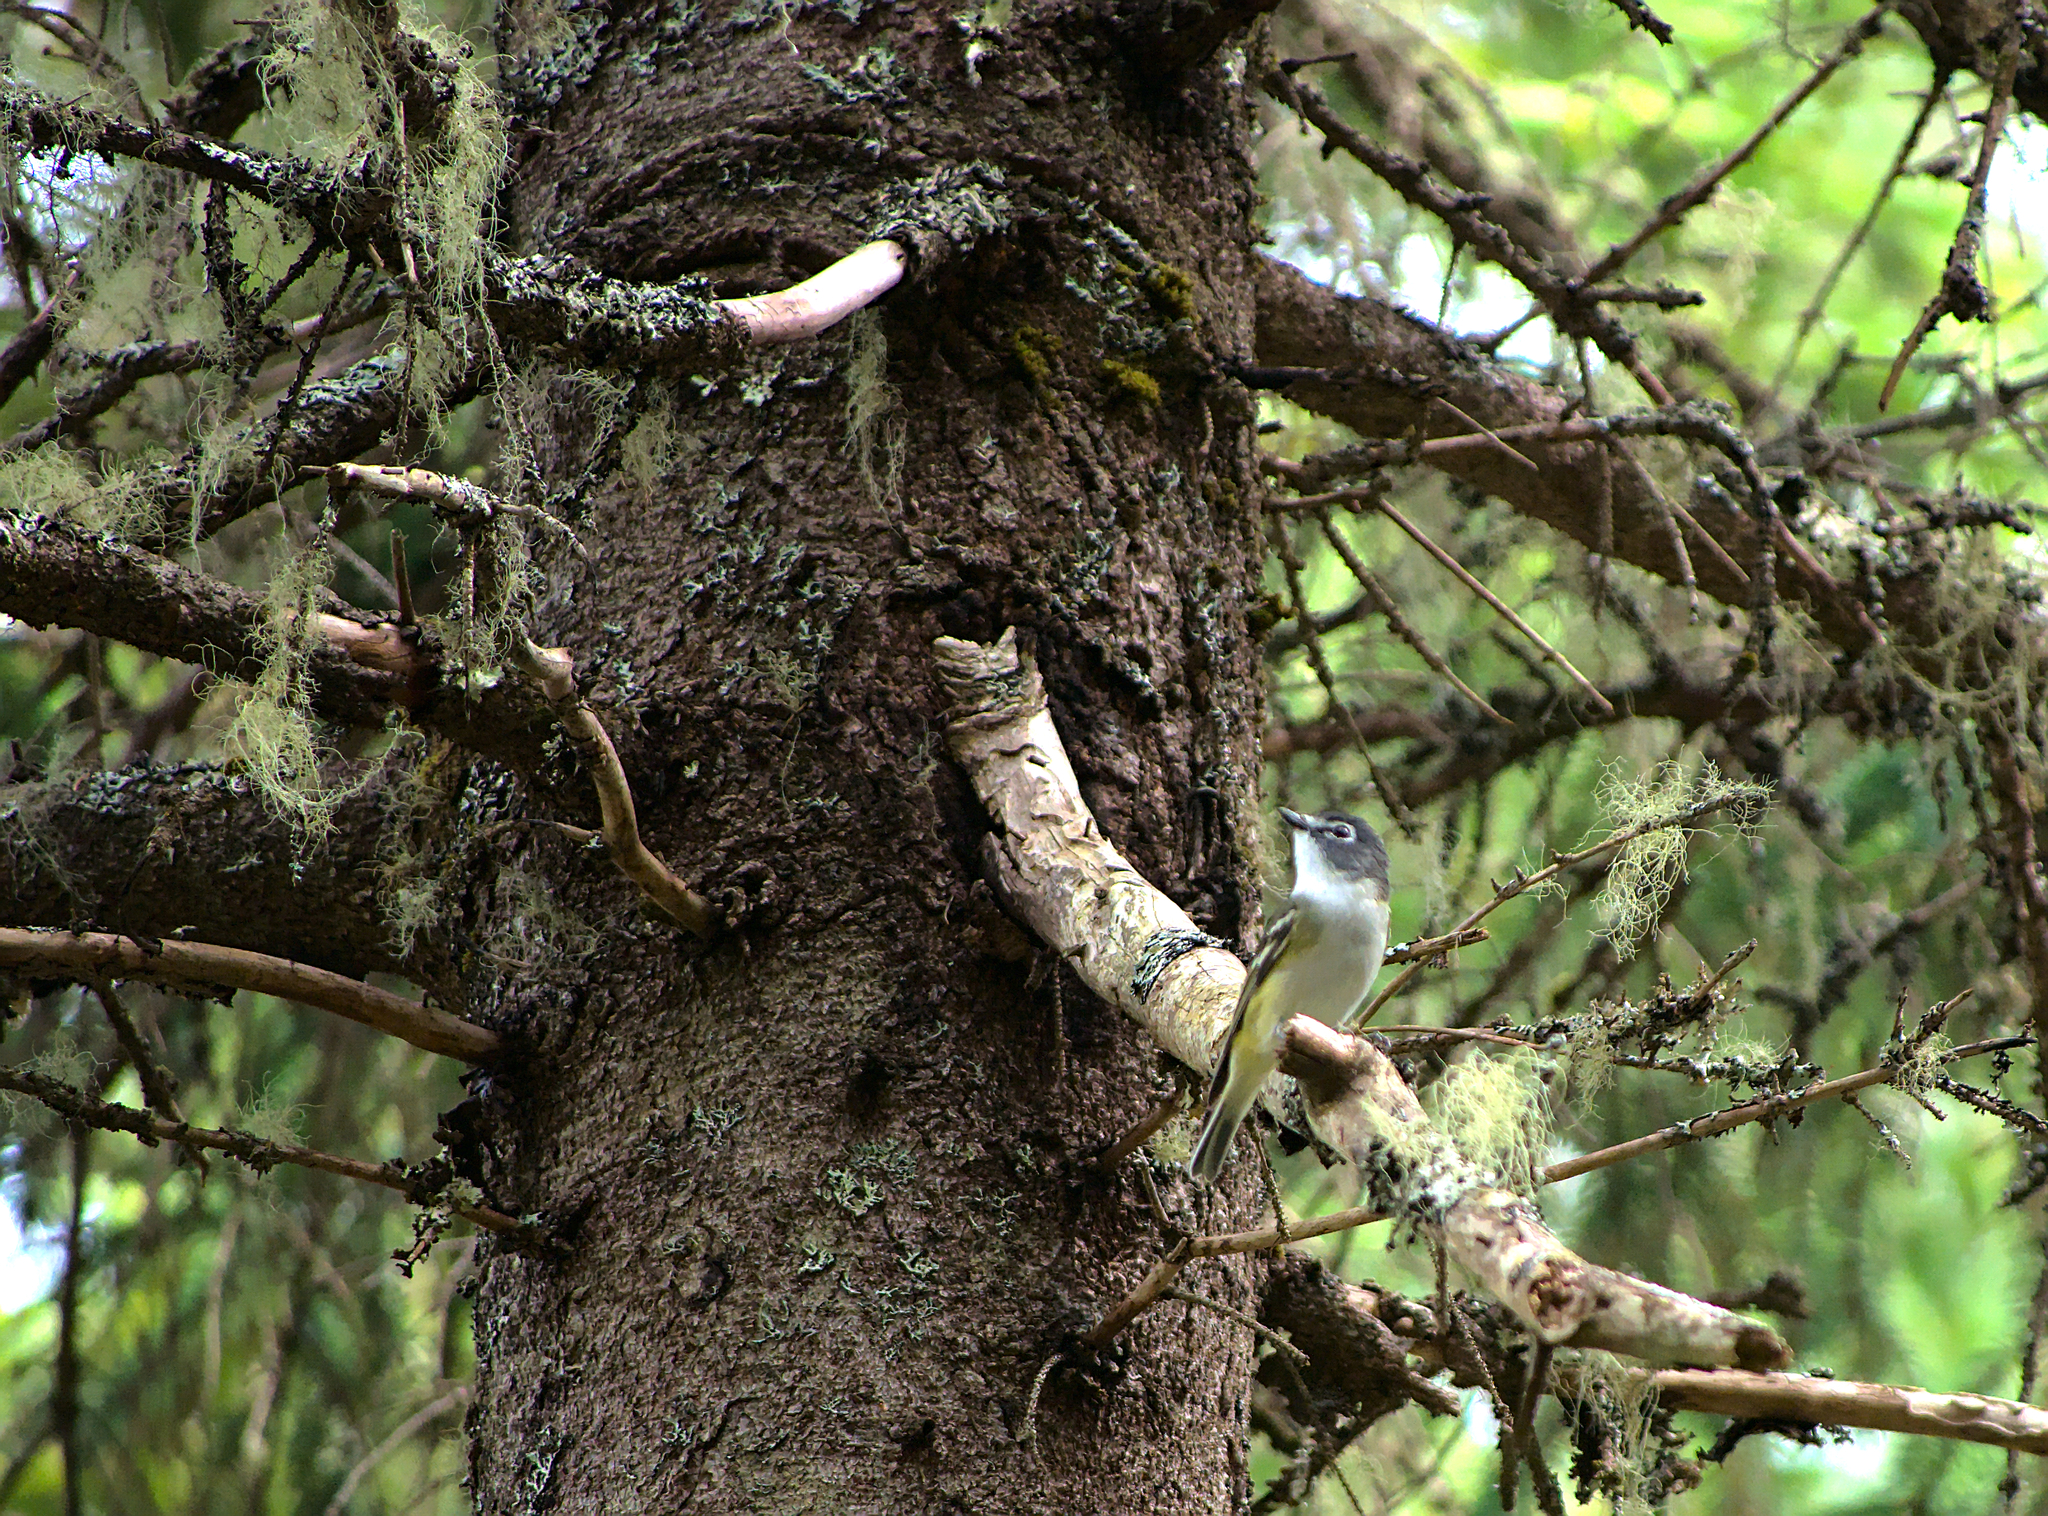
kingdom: Animalia
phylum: Chordata
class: Aves
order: Passeriformes
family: Vireonidae
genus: Vireo
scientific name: Vireo solitarius
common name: Blue-headed vireo
